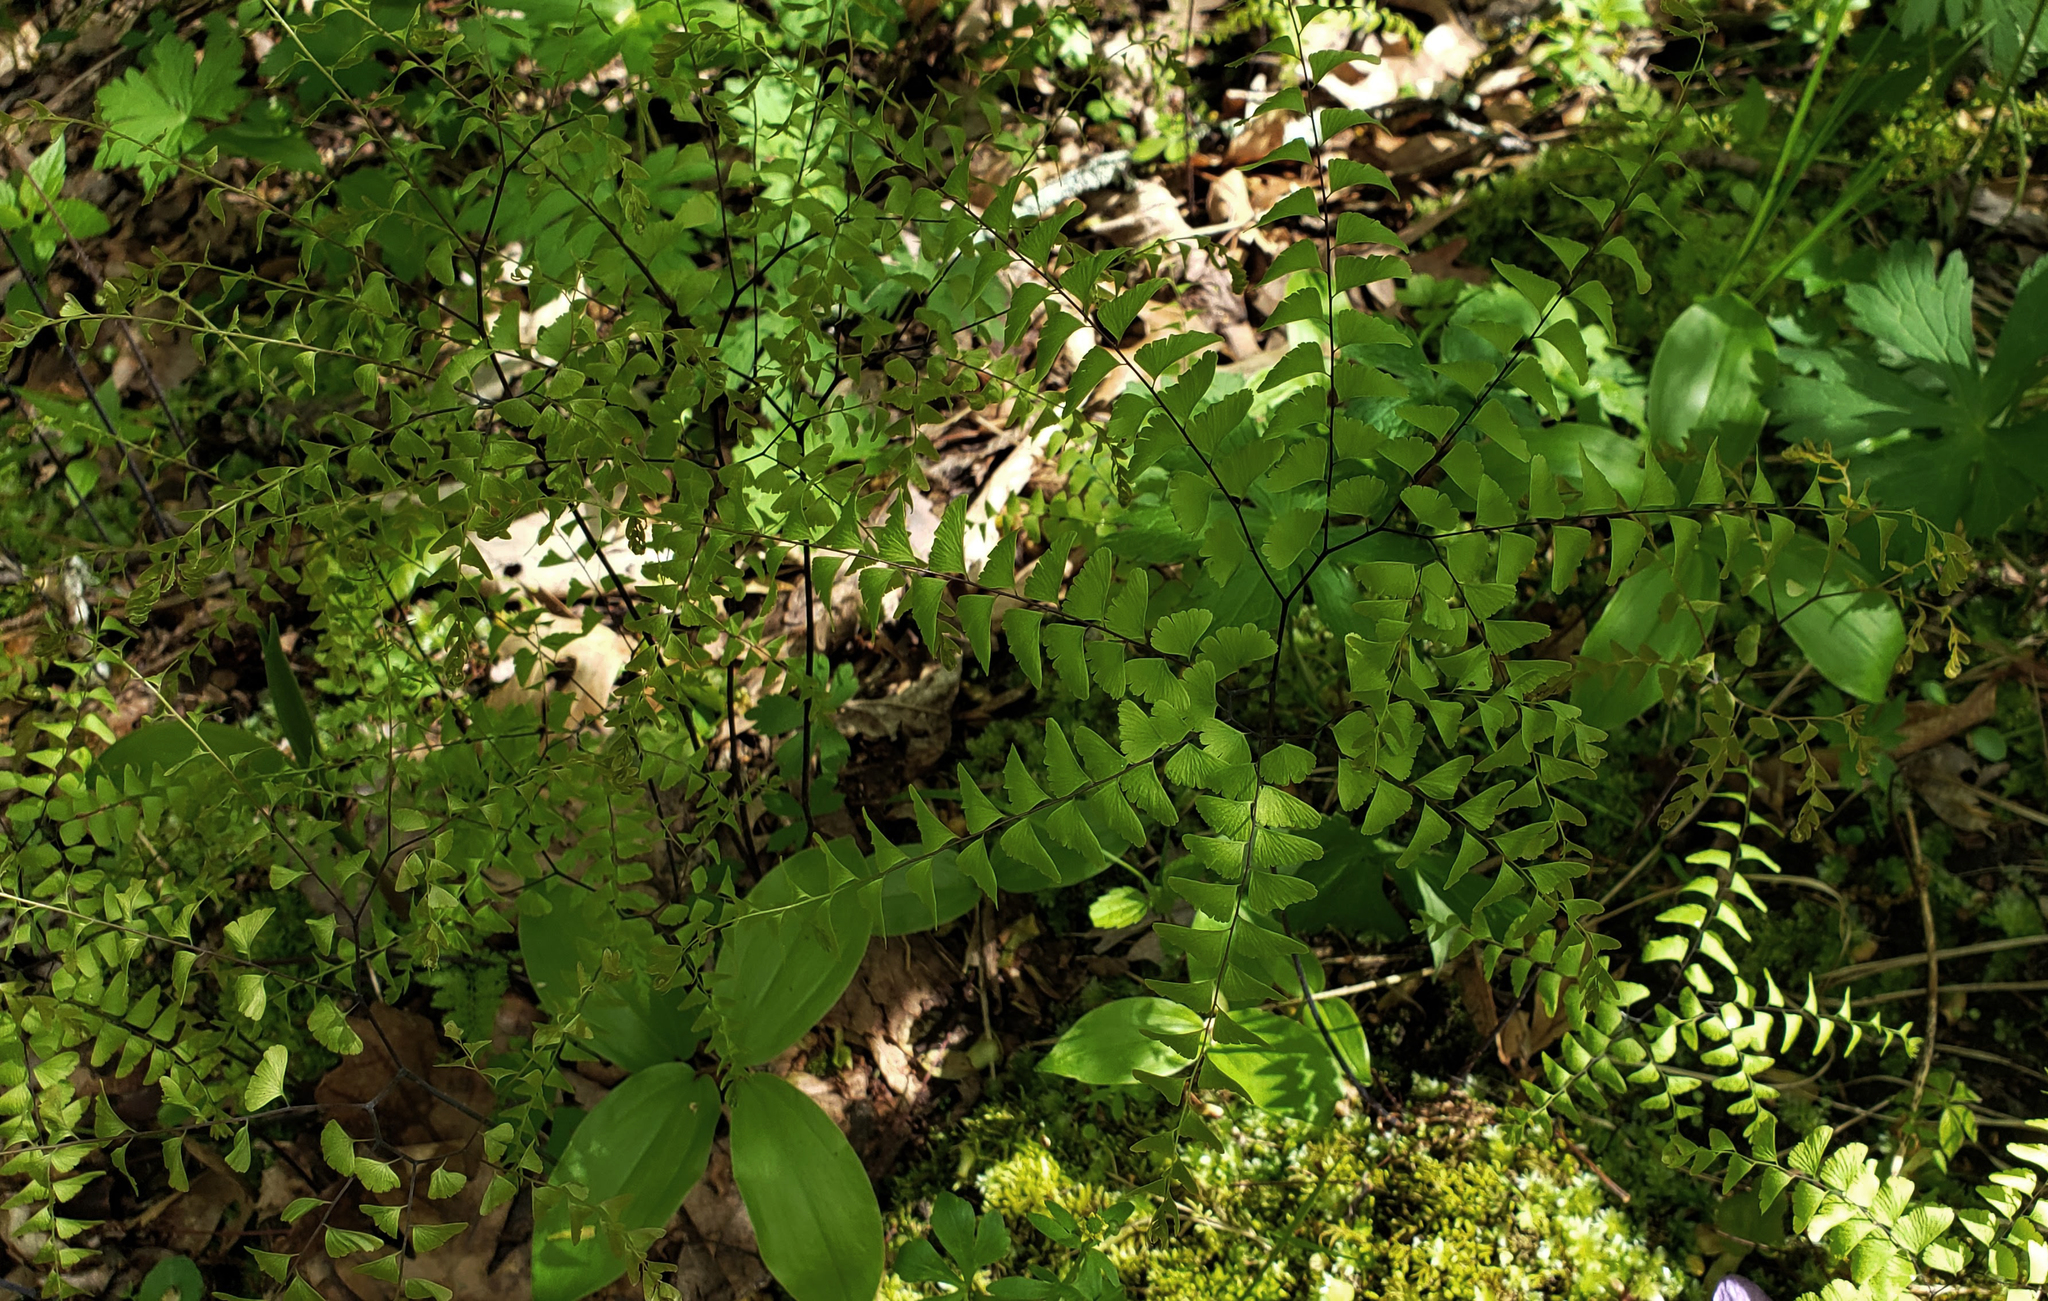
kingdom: Plantae
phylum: Tracheophyta
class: Polypodiopsida
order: Polypodiales
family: Pteridaceae
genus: Adiantum
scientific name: Adiantum pedatum
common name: Five-finger fern
